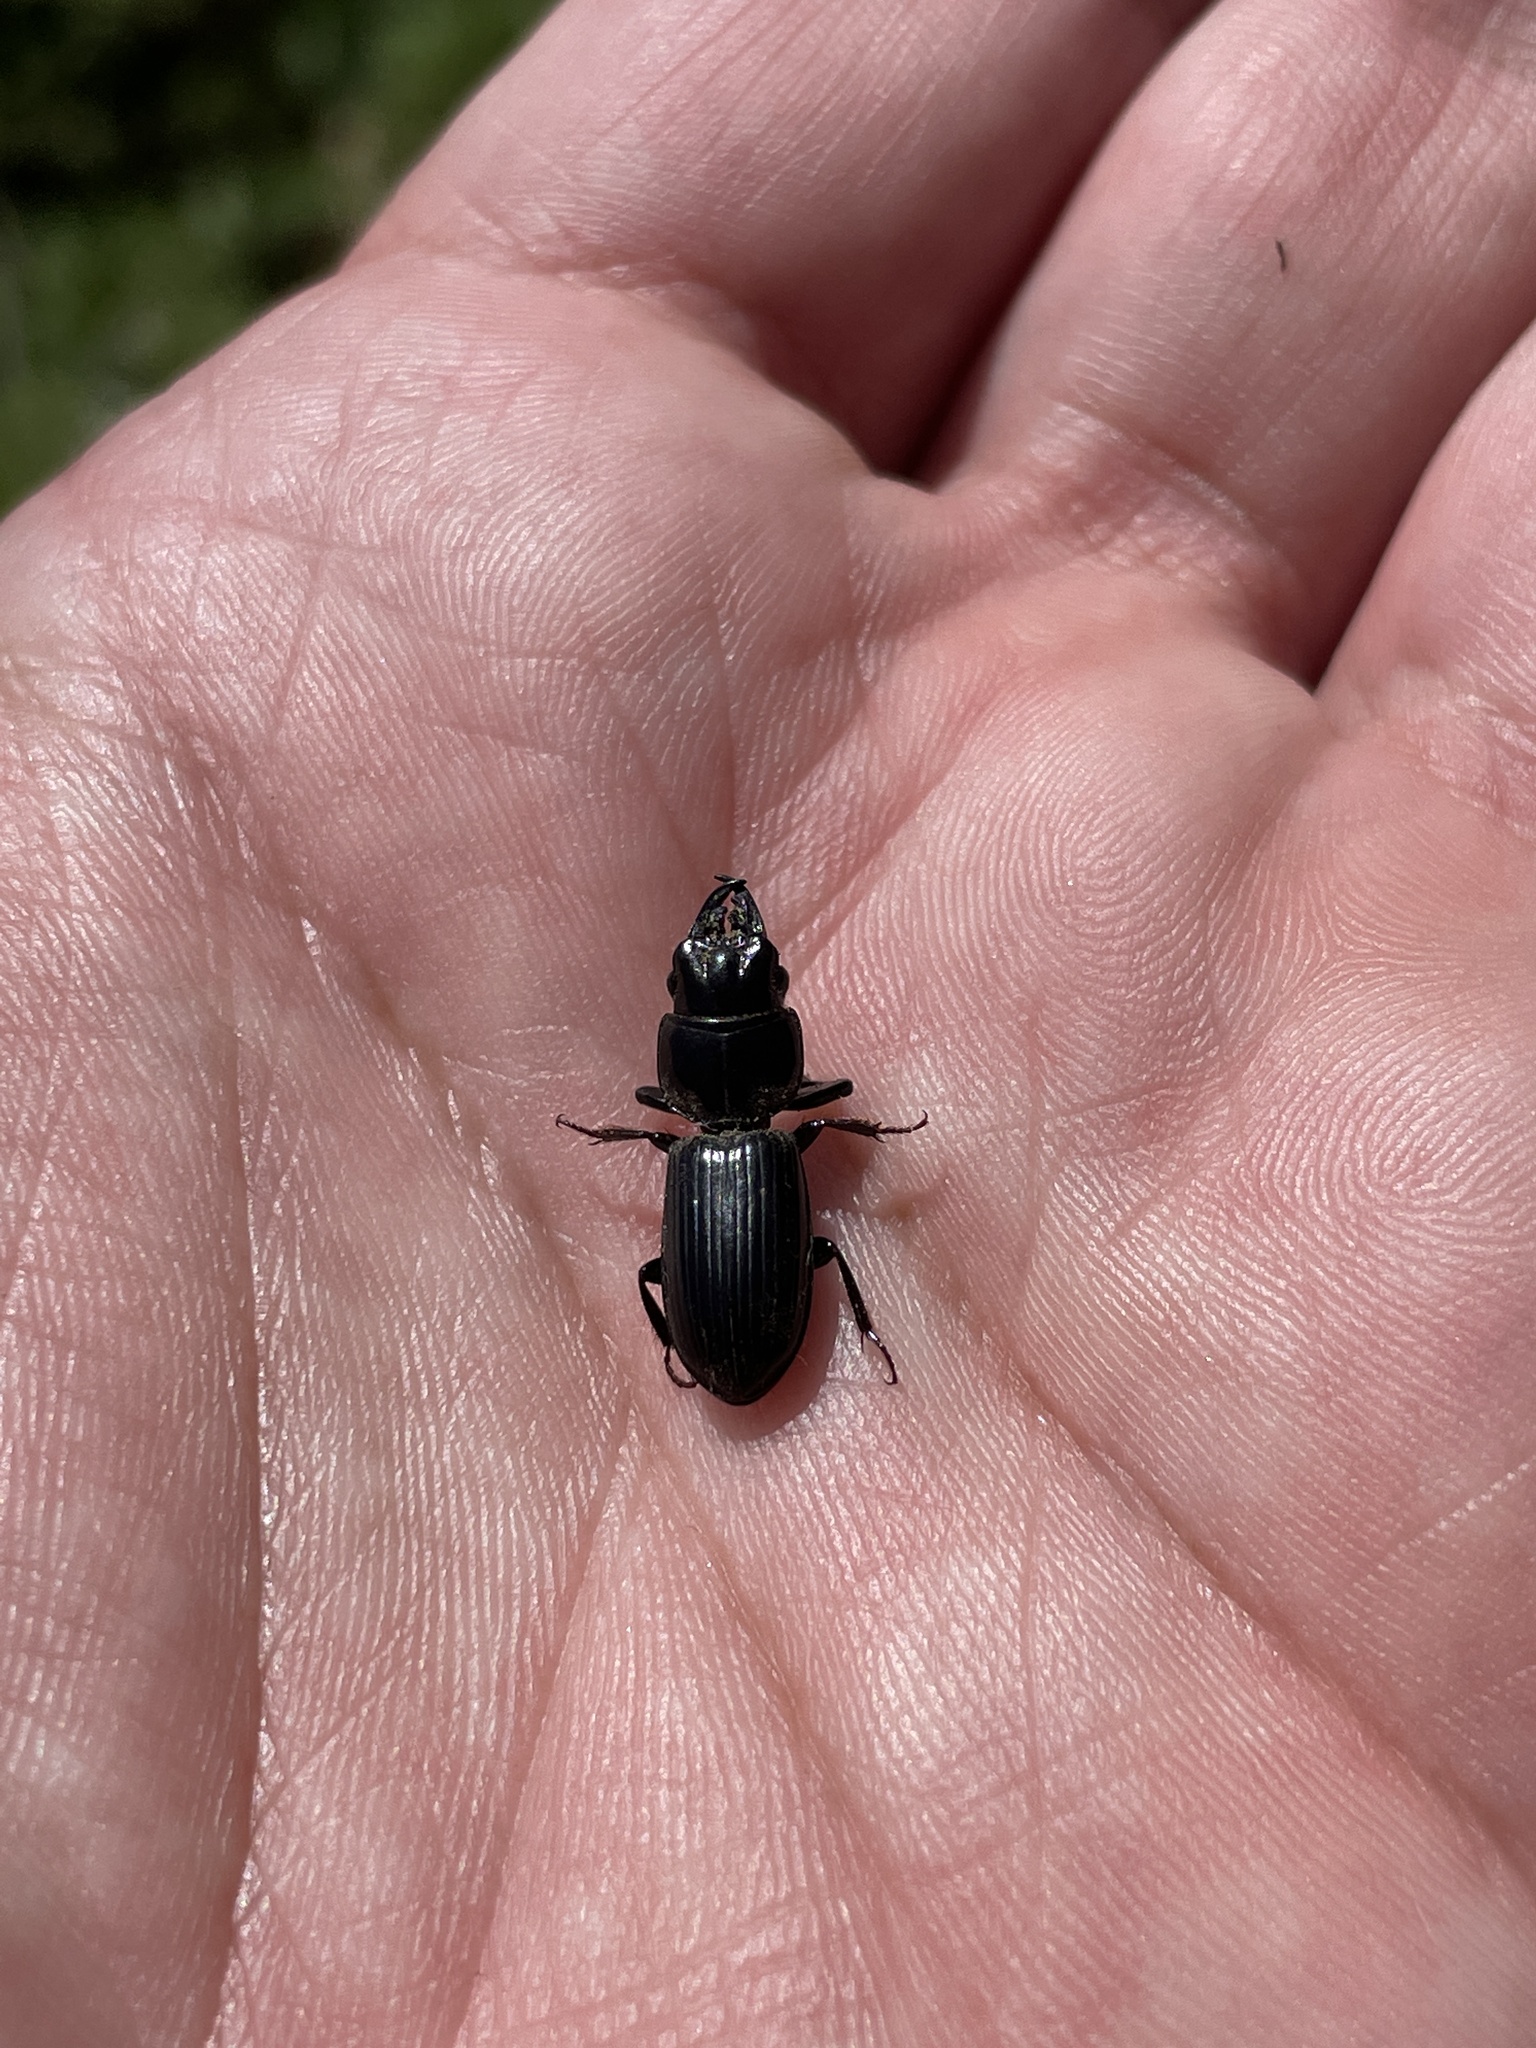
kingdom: Animalia
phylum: Arthropoda
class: Insecta
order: Coleoptera
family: Carabidae
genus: Scarites
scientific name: Scarites subterraneus
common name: Big-headed ground beetle
